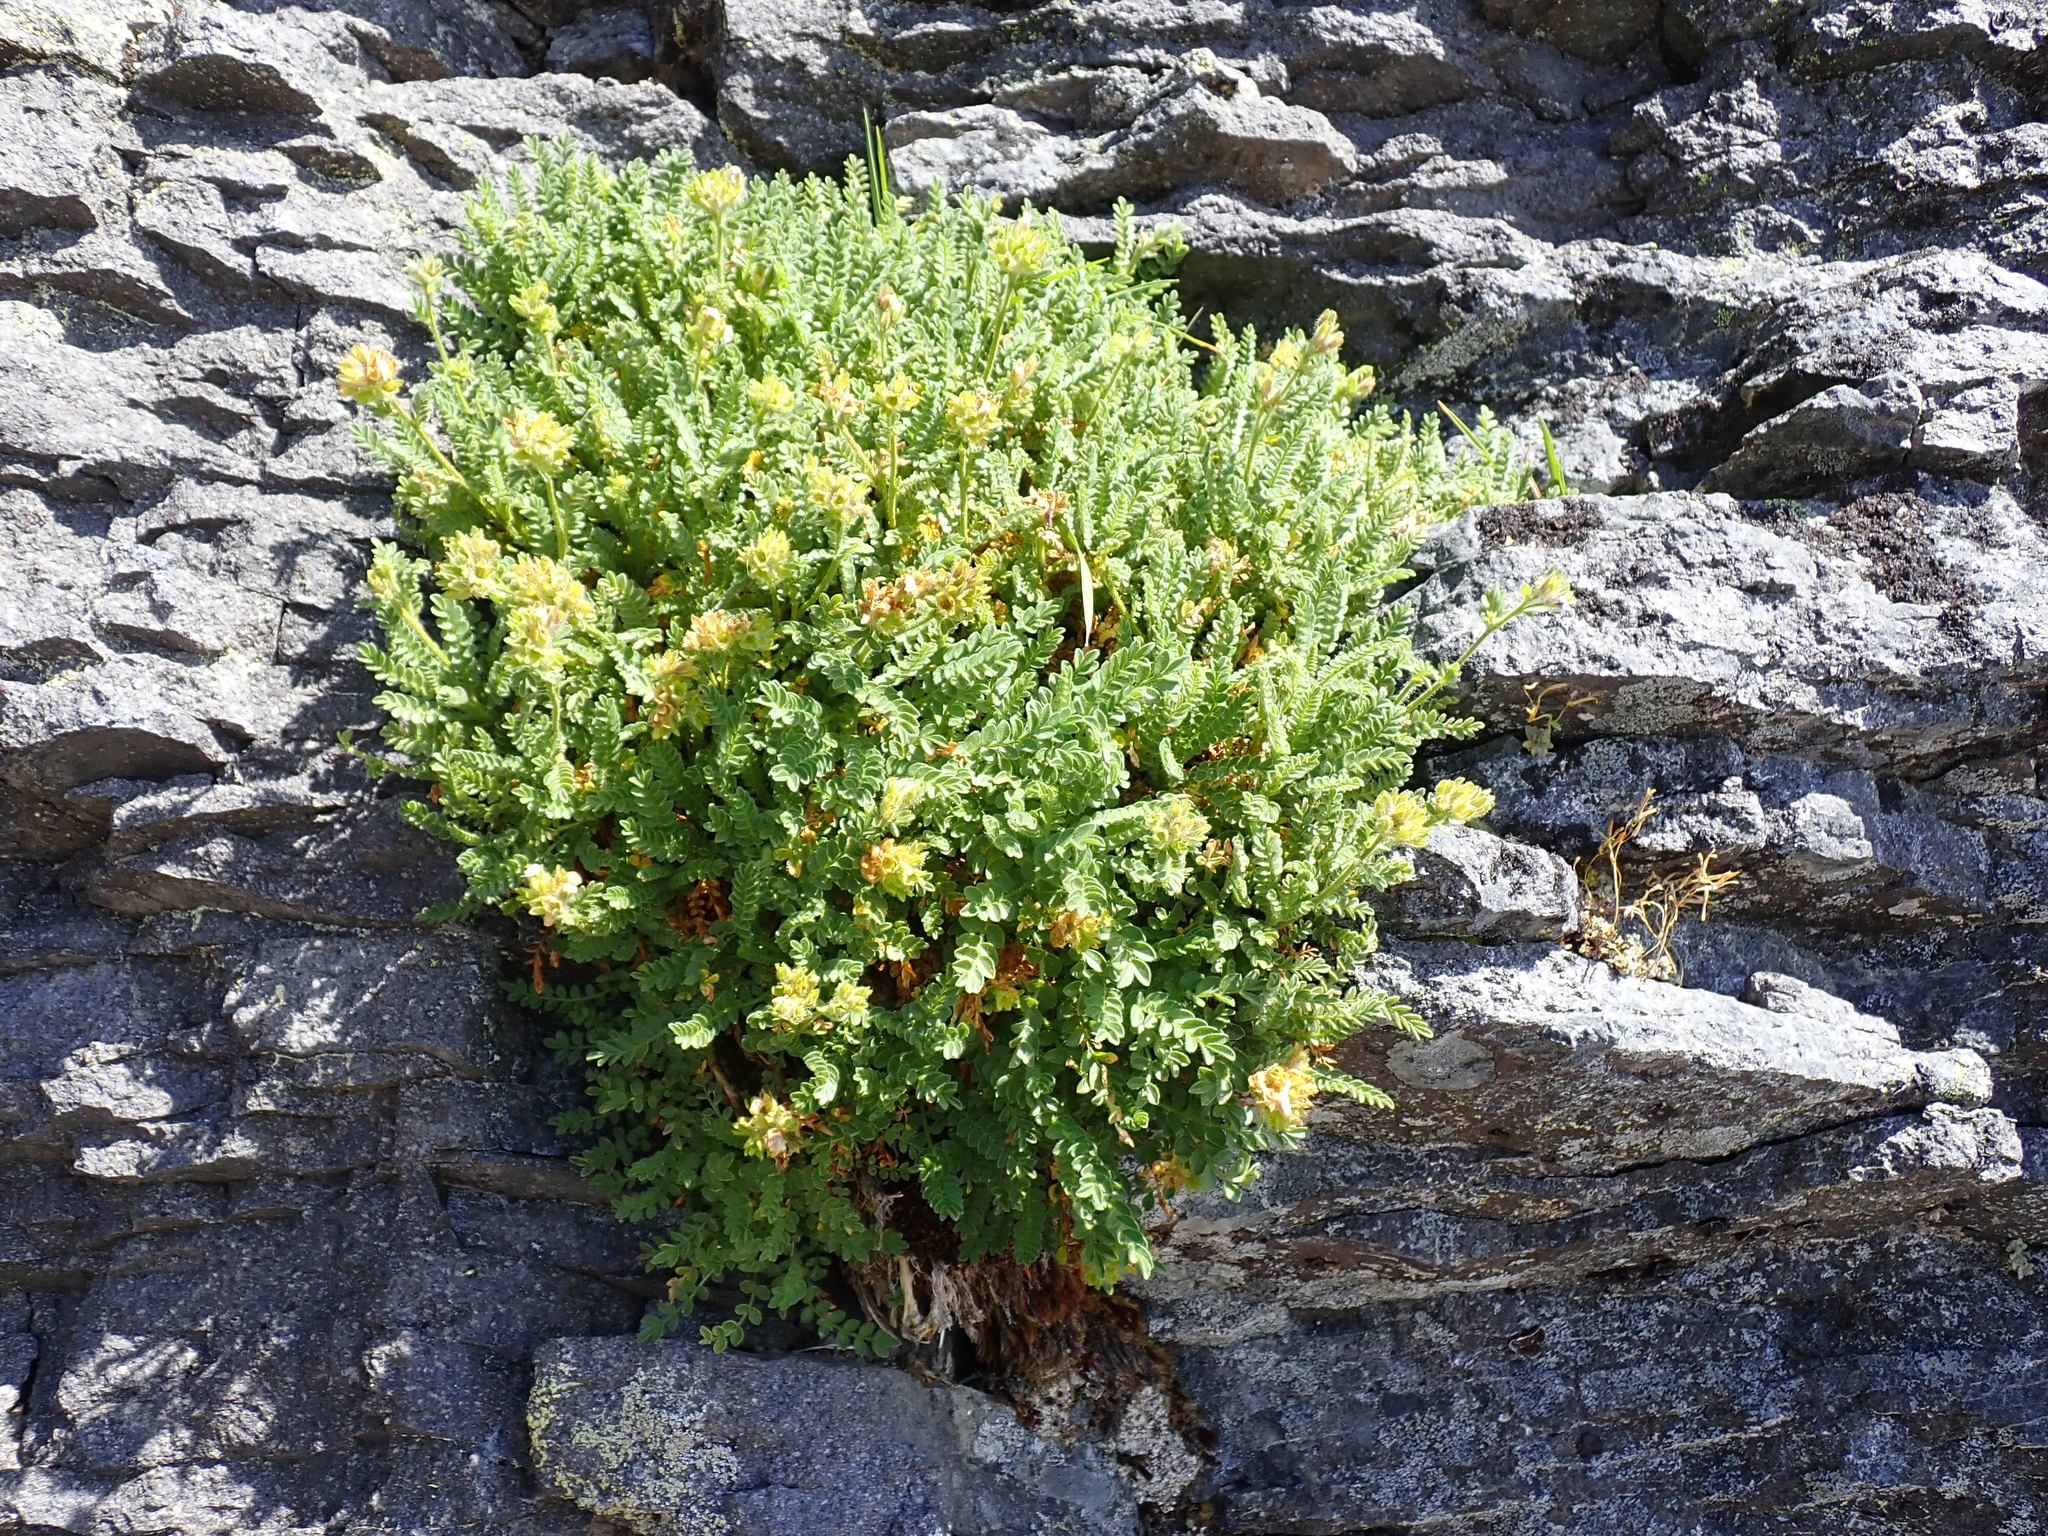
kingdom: Plantae
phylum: Tracheophyta
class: Magnoliopsida
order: Ericales
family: Polemoniaceae
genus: Polemonium
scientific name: Polemonium elegans
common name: Elegant jacob's-ladder
